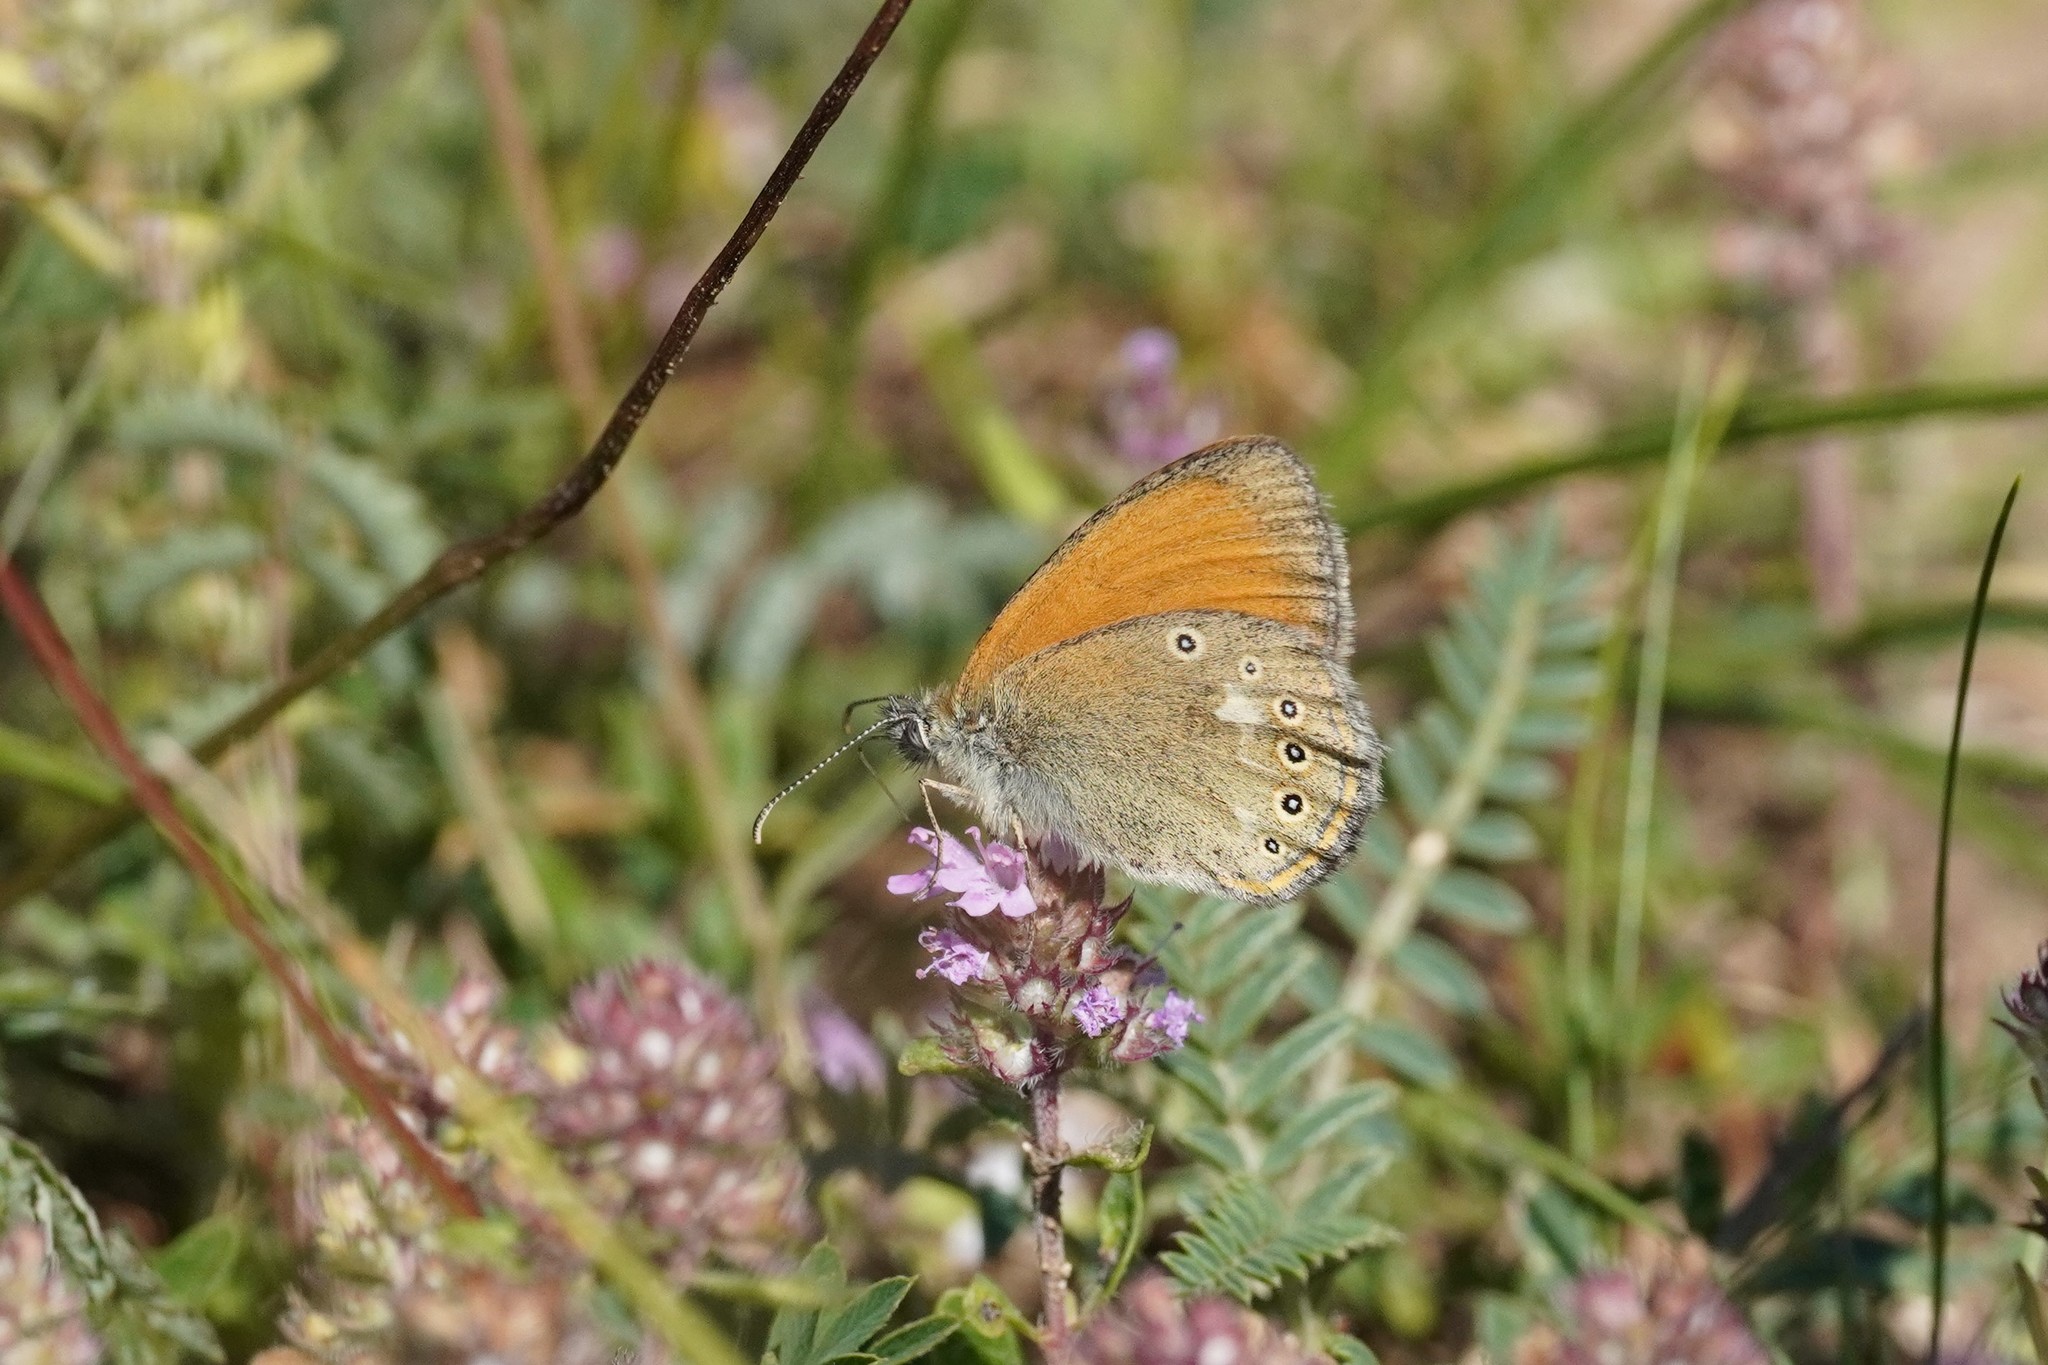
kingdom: Animalia
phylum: Arthropoda
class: Insecta
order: Lepidoptera
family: Nymphalidae
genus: Coenonympha
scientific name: Coenonympha iphis
